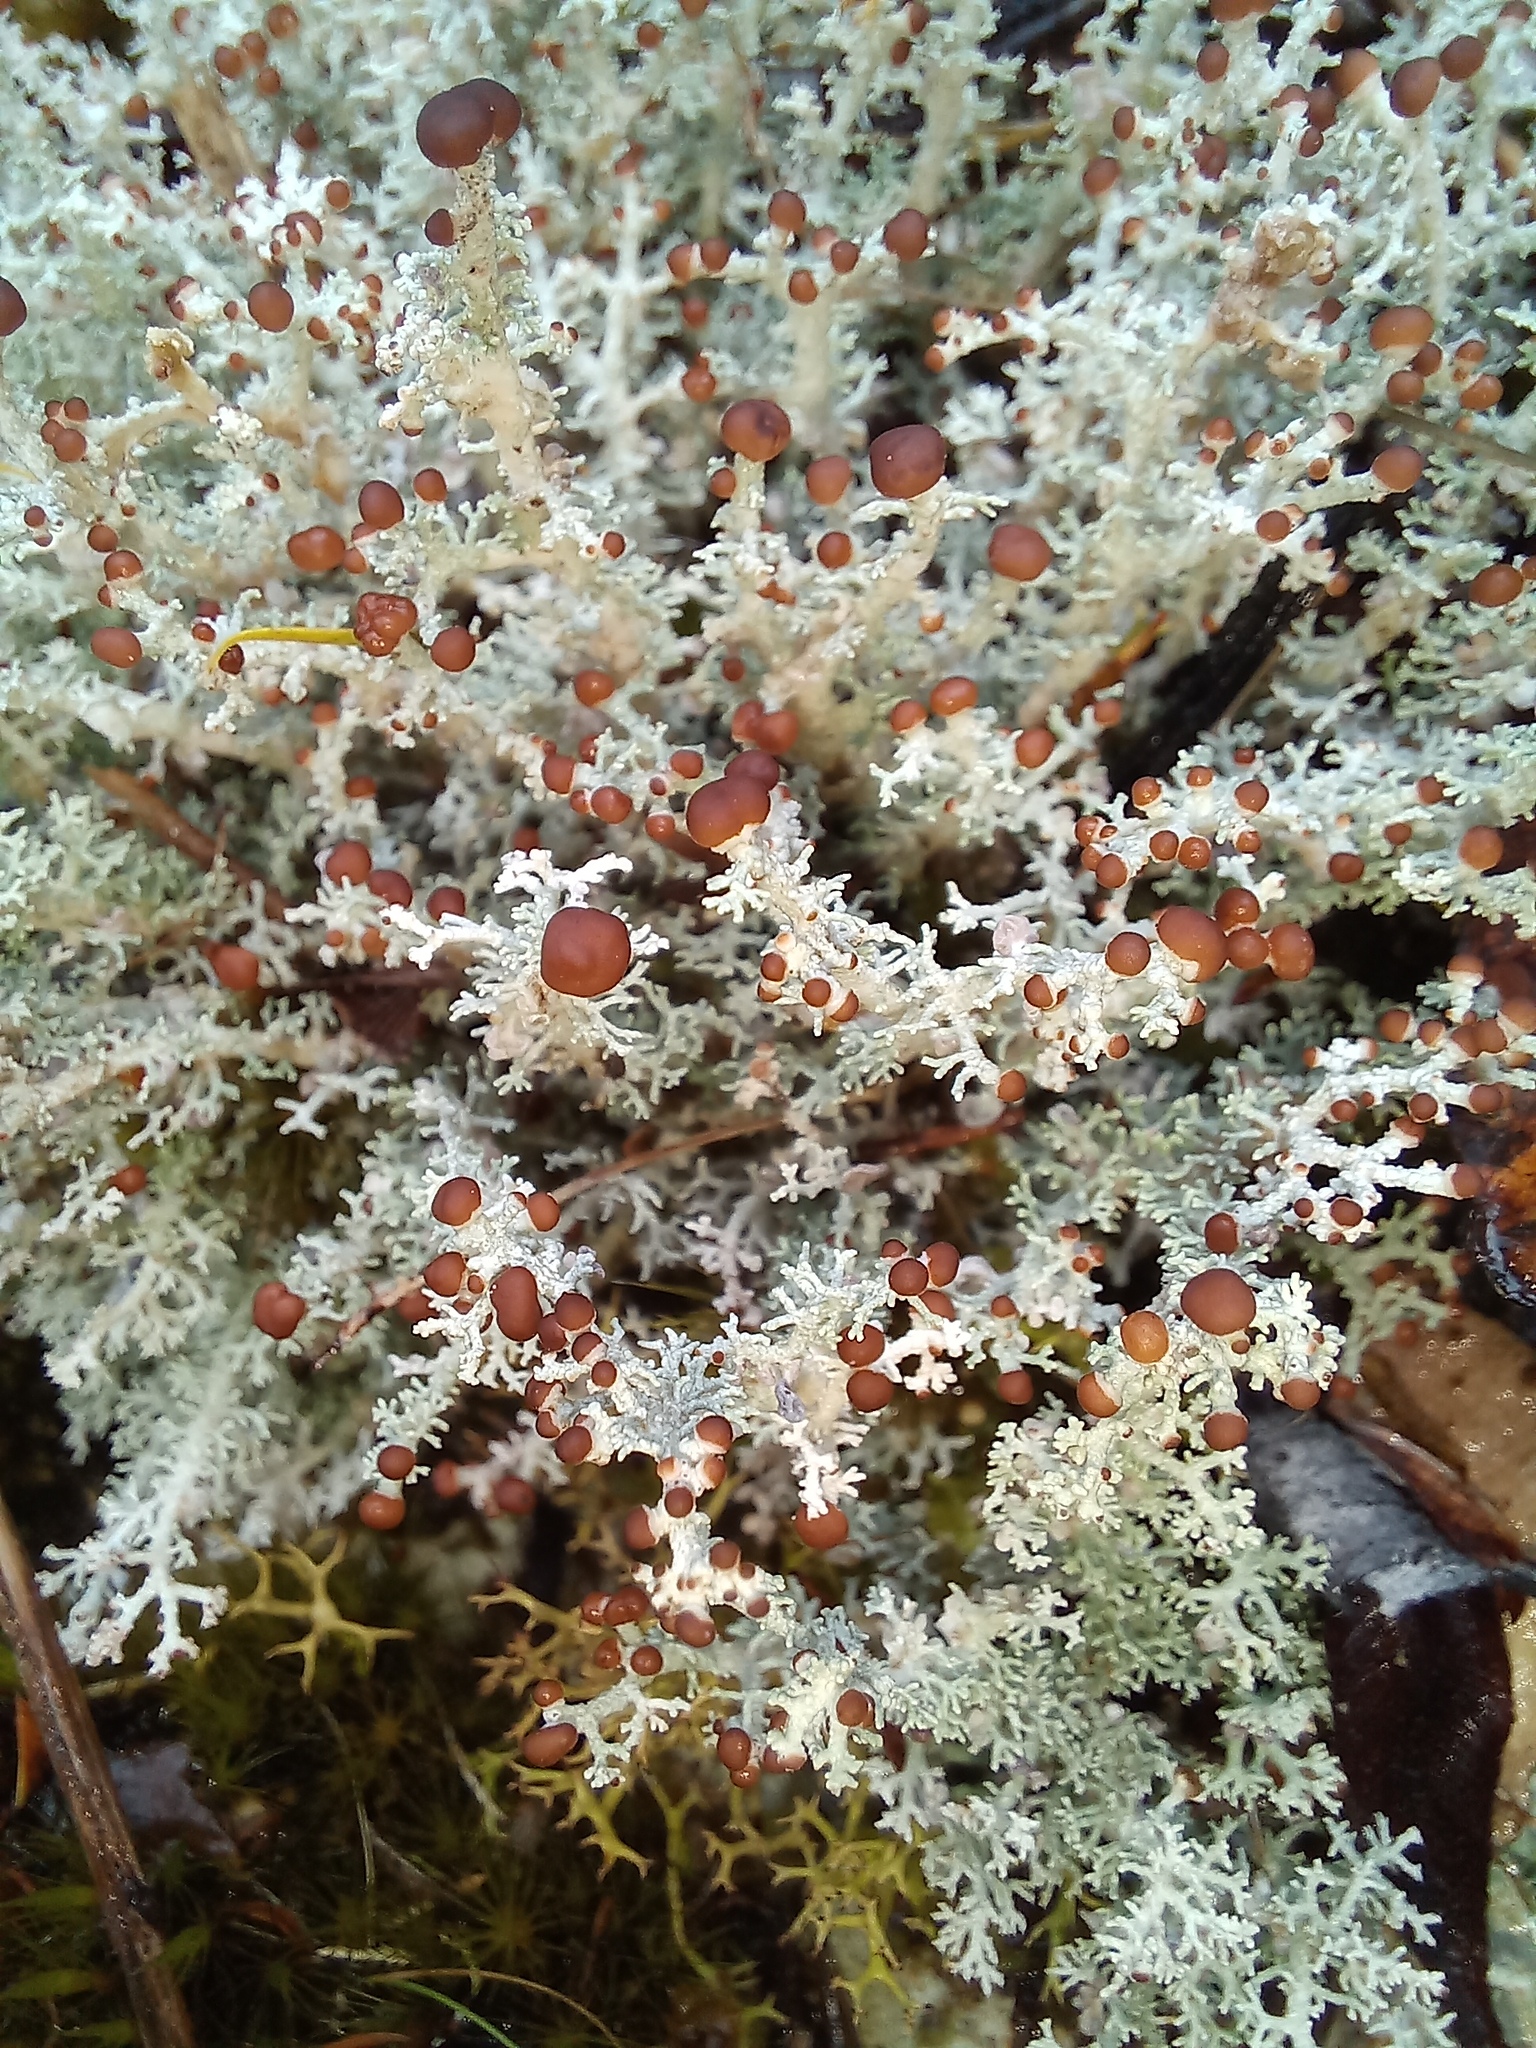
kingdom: Fungi
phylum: Ascomycota
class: Lecanoromycetes
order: Lecanorales
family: Stereocaulaceae
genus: Stereocaulon
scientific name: Stereocaulon ramulosum
